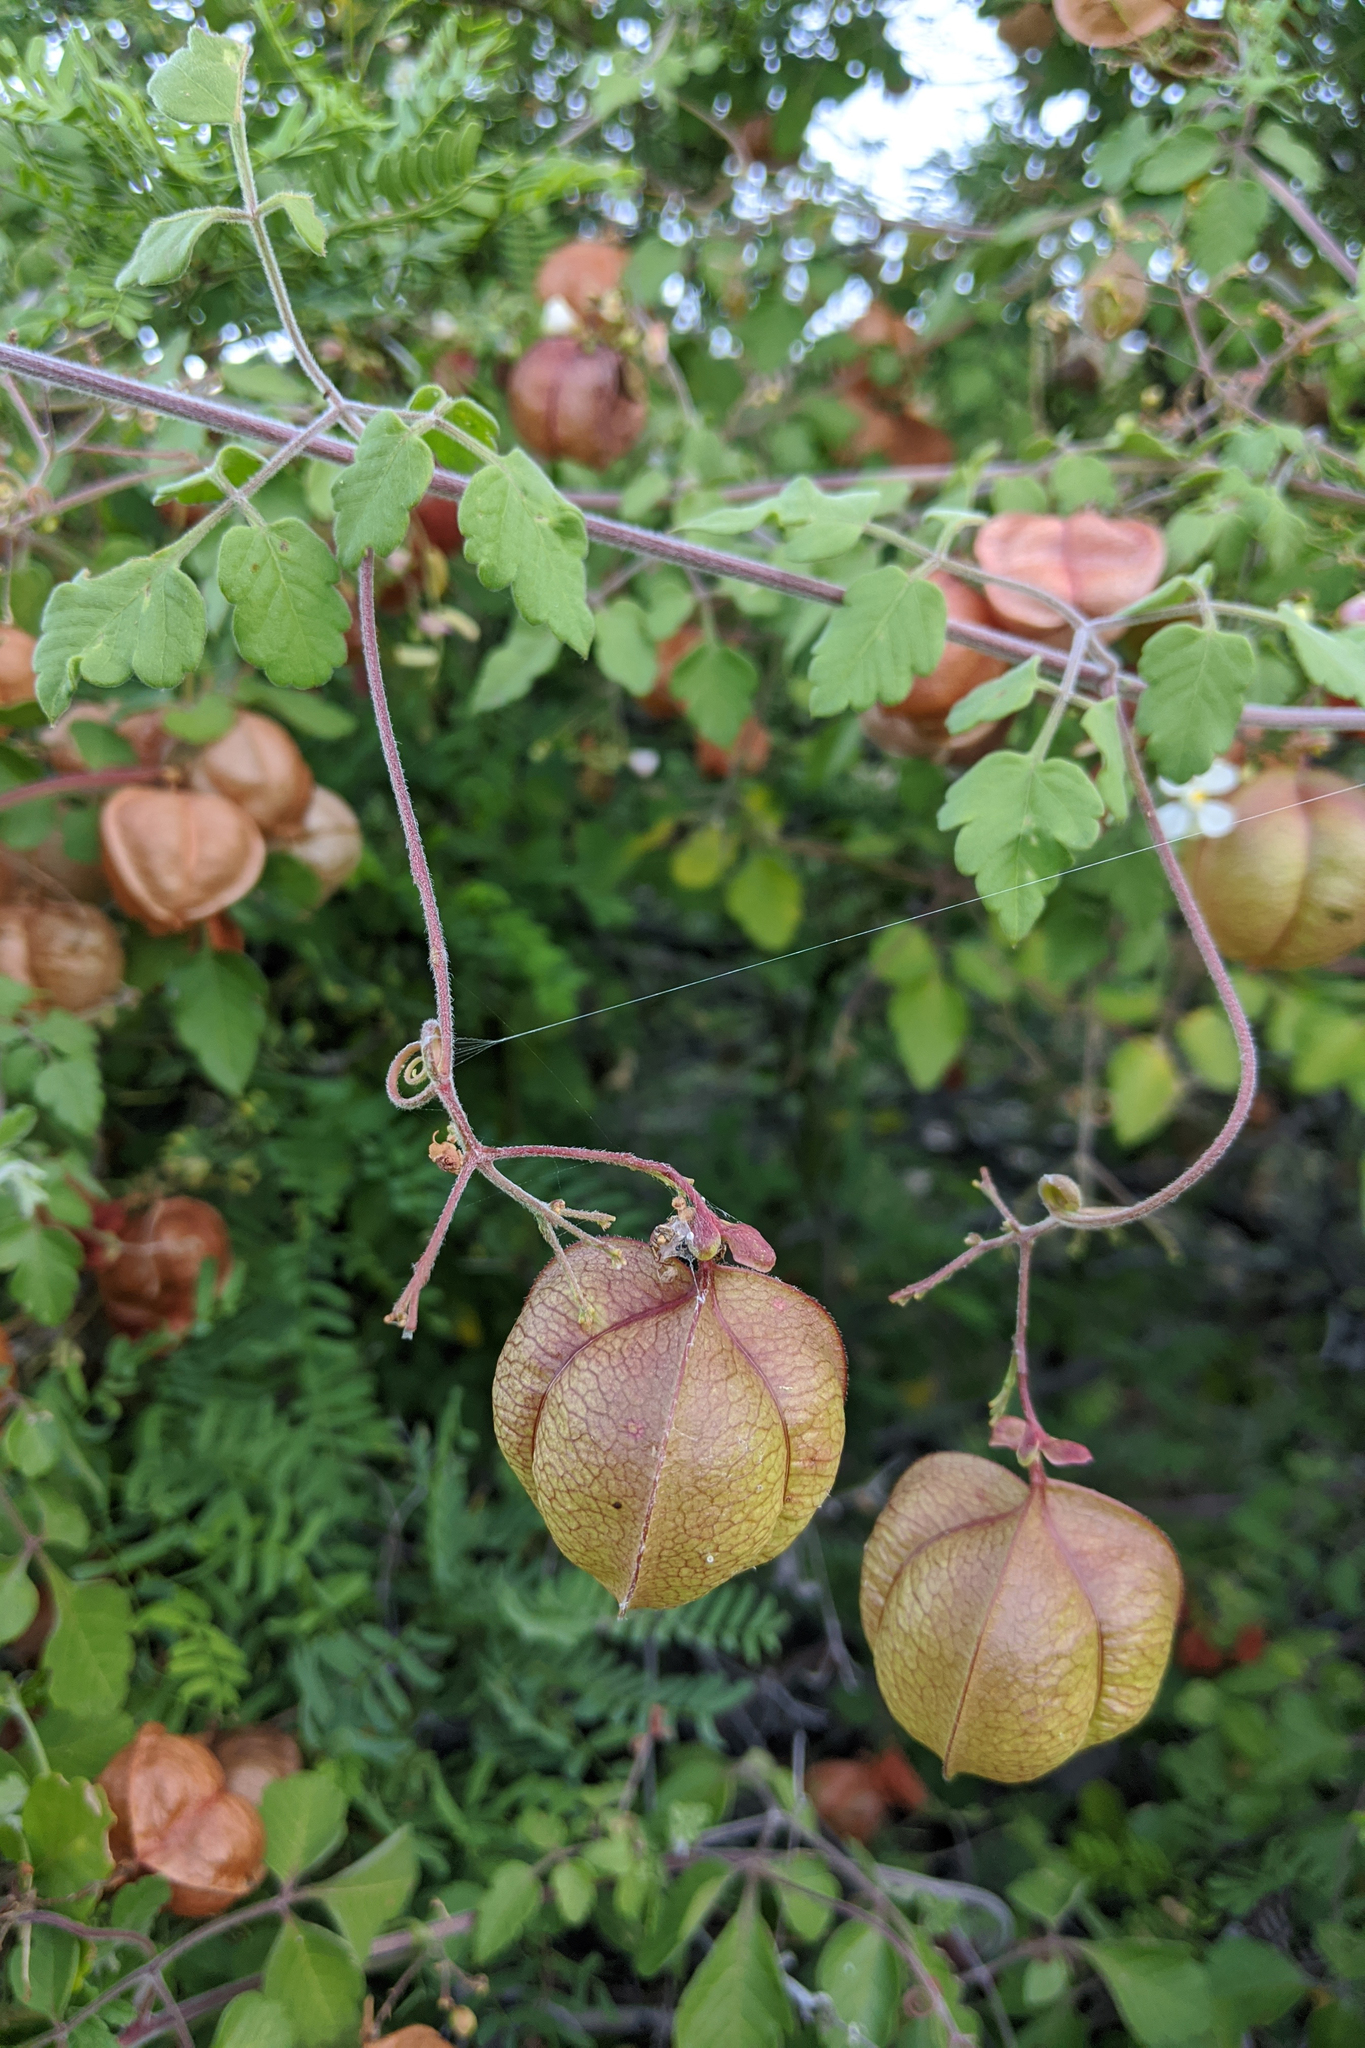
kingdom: Plantae
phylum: Tracheophyta
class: Magnoliopsida
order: Sapindales
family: Sapindaceae
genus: Cardiospermum
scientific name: Cardiospermum corindum
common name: Faux persil
